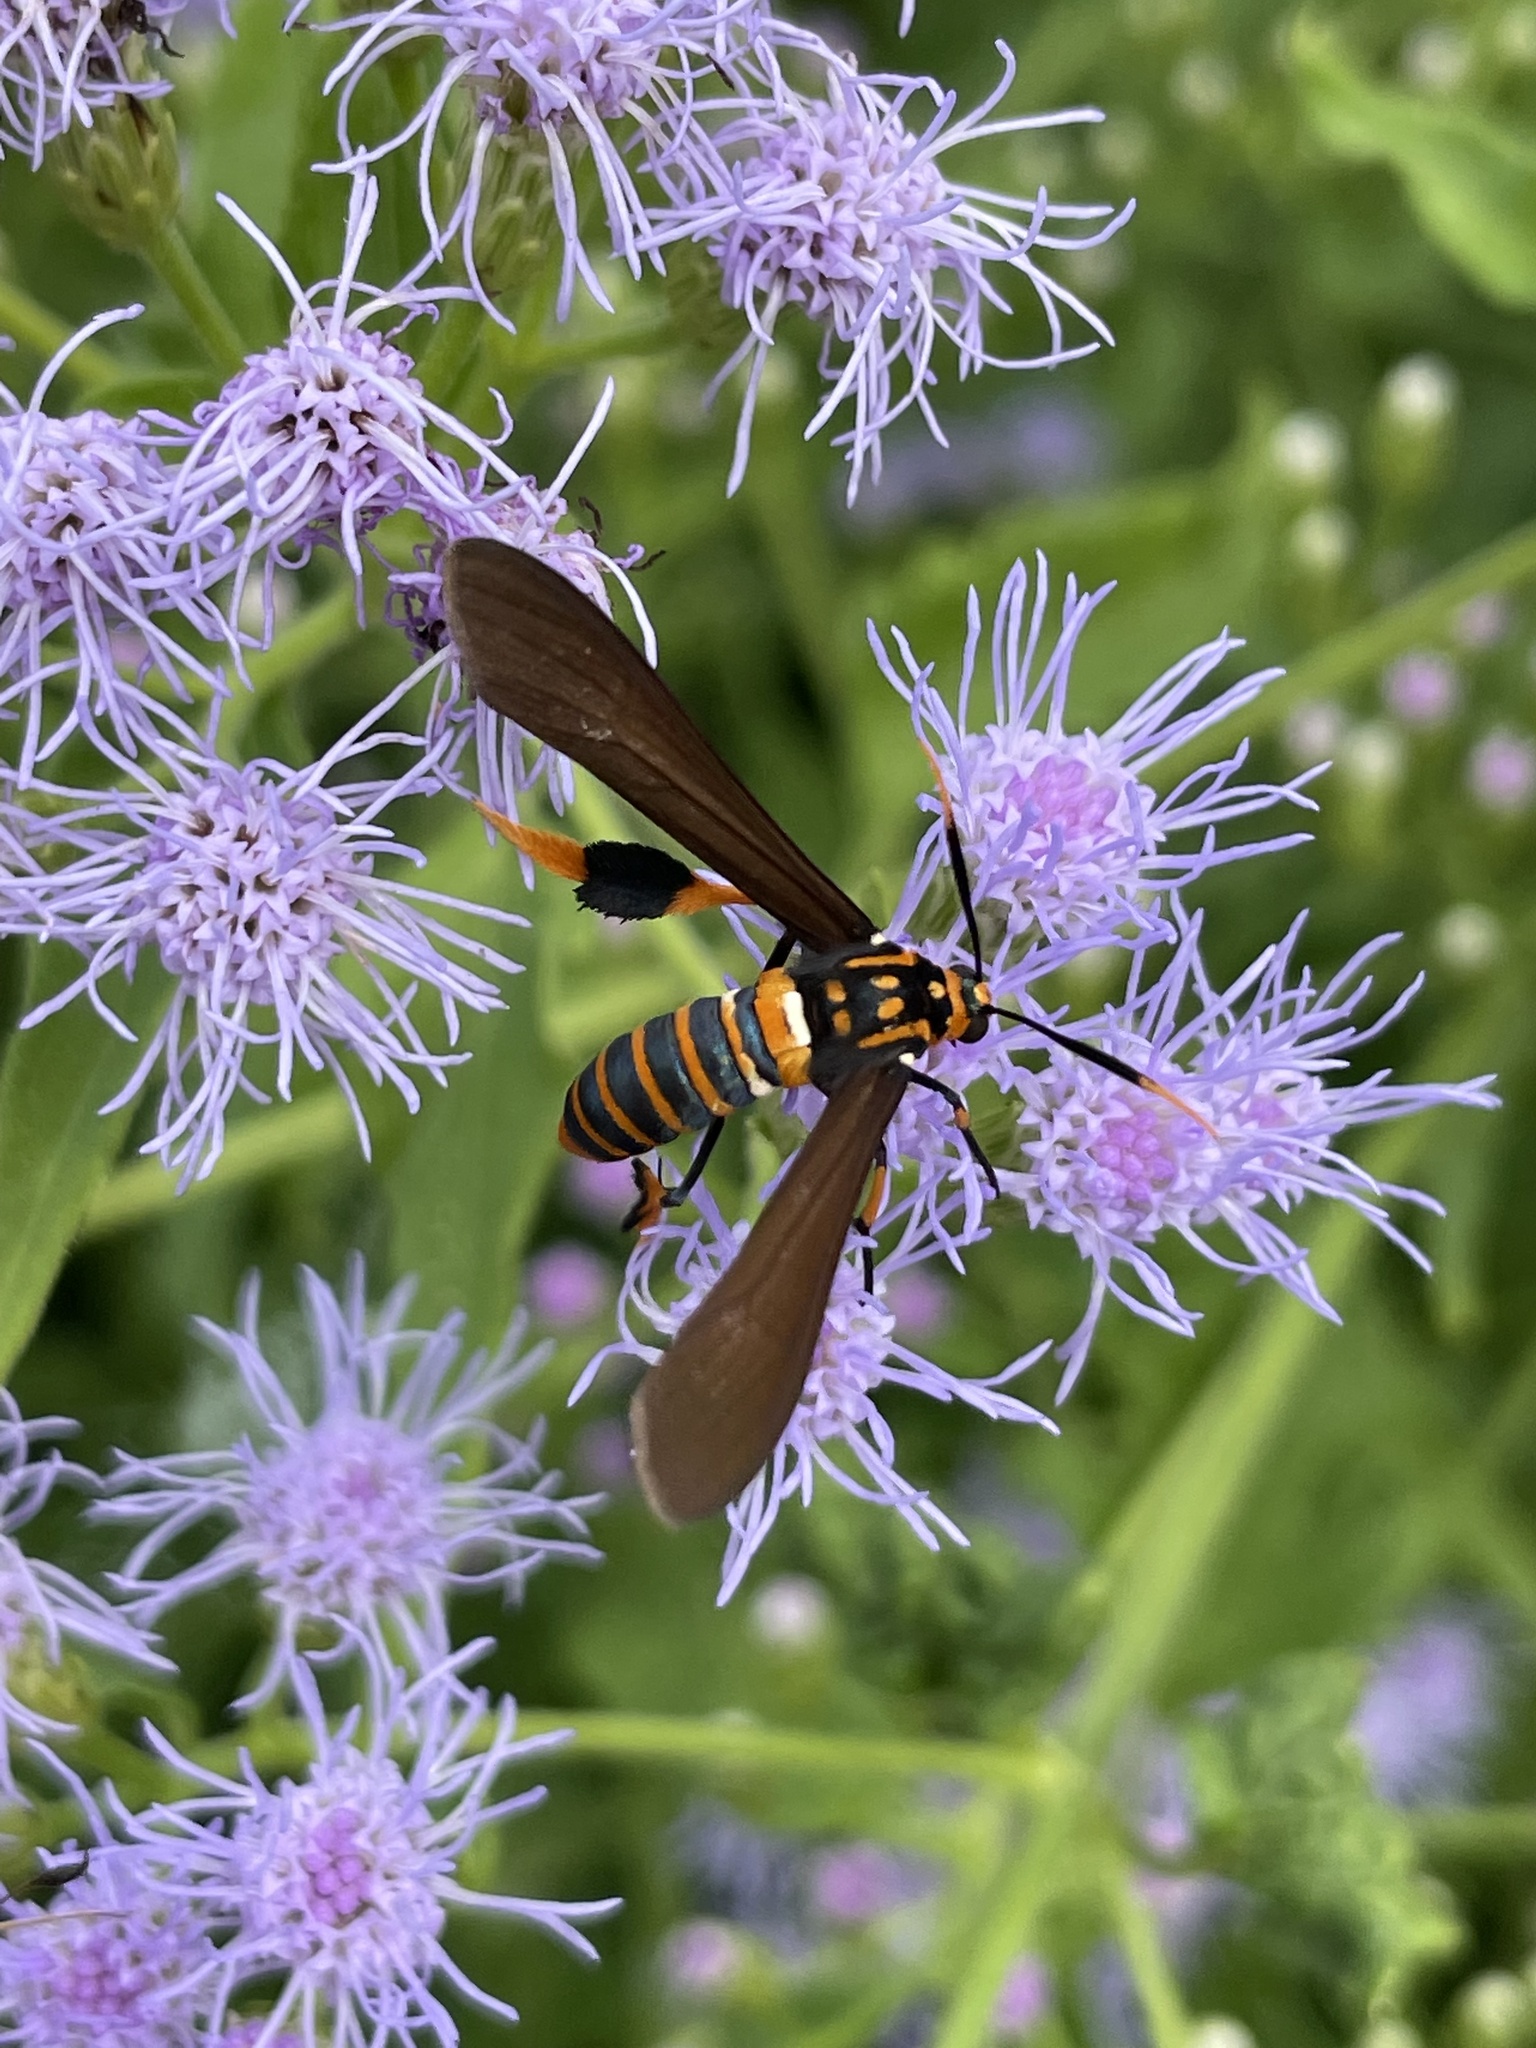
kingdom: Animalia
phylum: Arthropoda
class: Insecta
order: Lepidoptera
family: Erebidae
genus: Horama
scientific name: Horama panthalon
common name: Texas wasp moth
